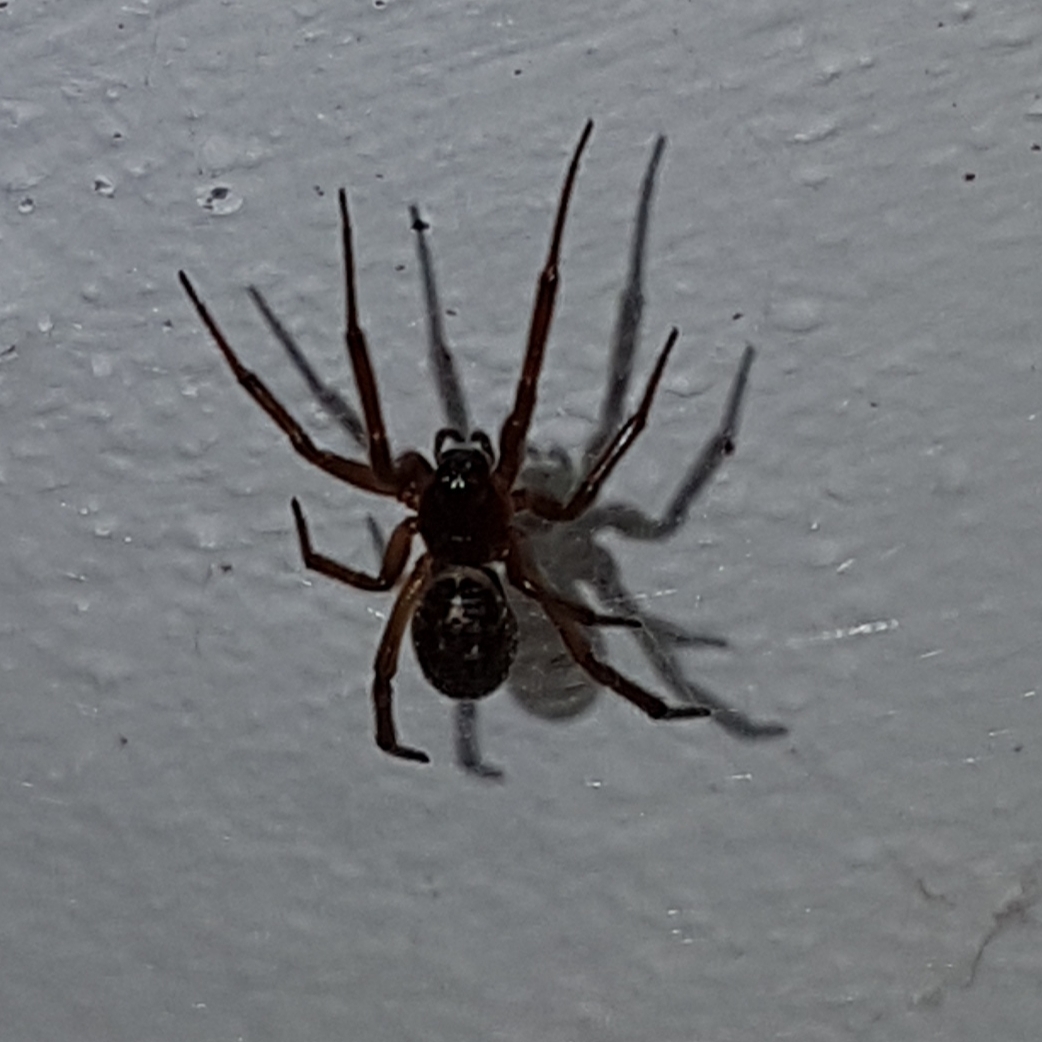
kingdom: Animalia
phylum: Arthropoda
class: Arachnida
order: Araneae
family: Theridiidae
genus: Steatoda
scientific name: Steatoda nobilis
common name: Cobweb weaver
